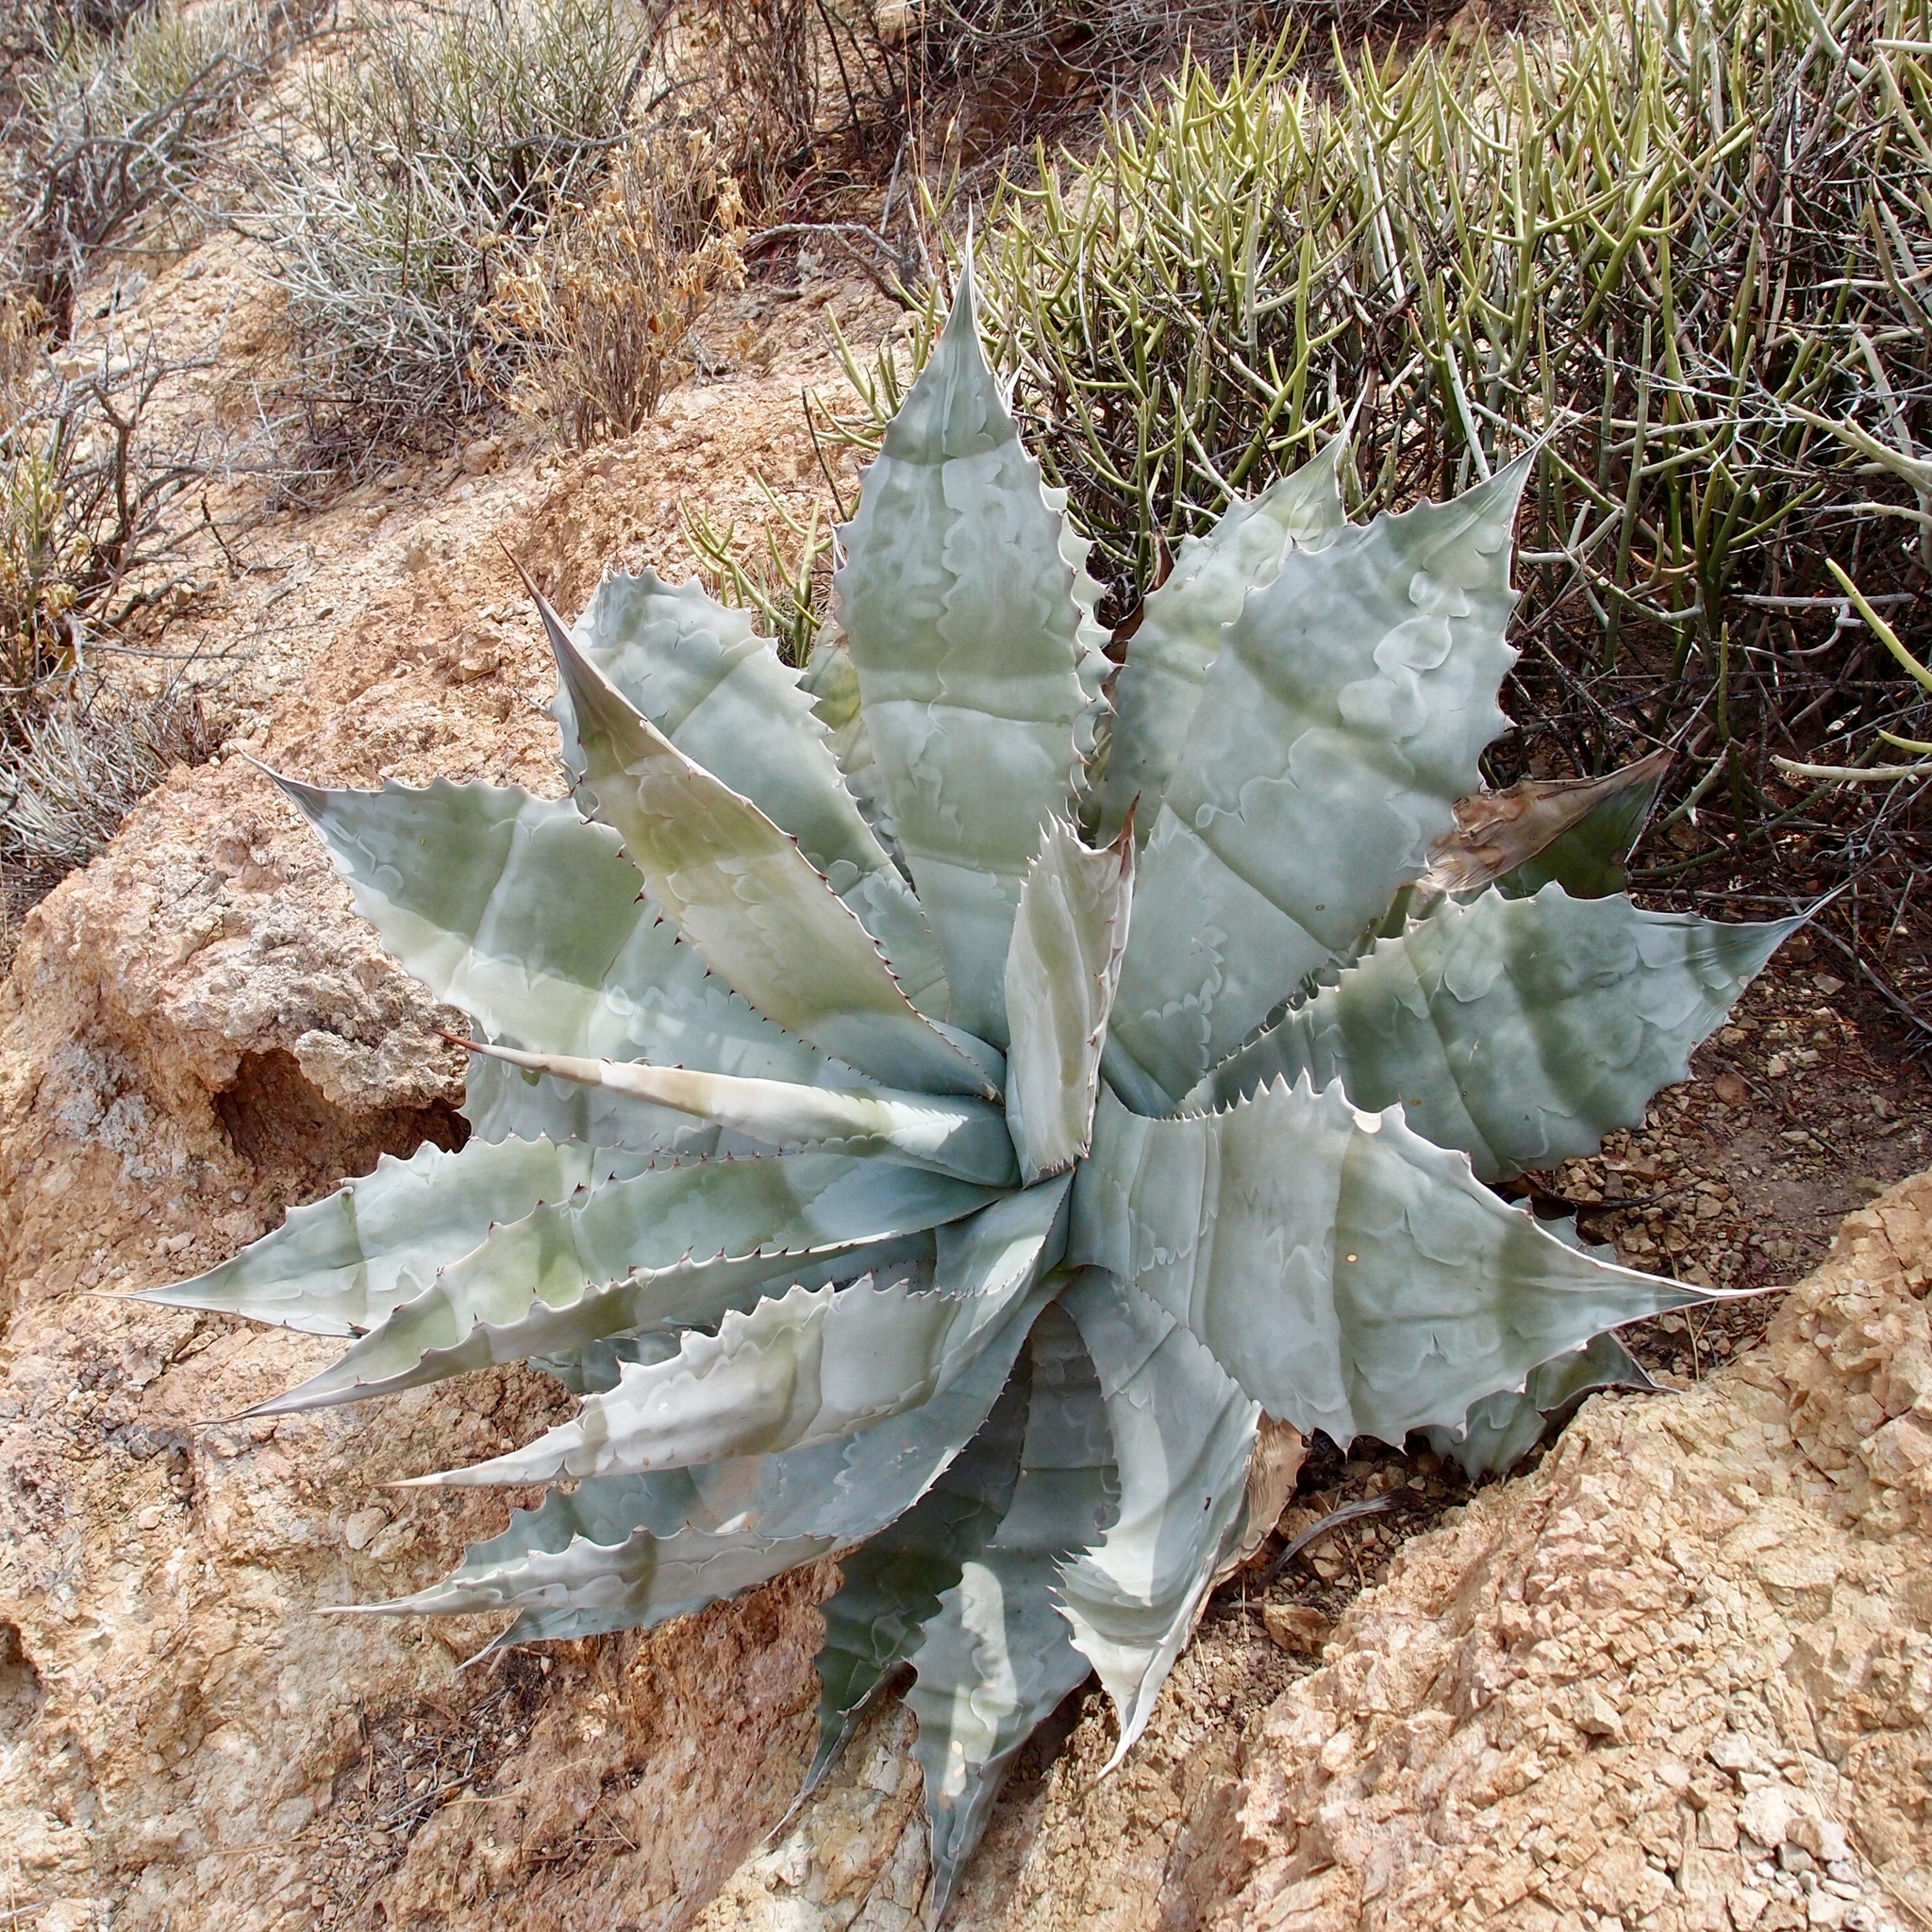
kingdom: Plantae
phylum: Tracheophyta
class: Liliopsida
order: Asparagales
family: Asparagaceae
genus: Agave
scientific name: Agave colorata
